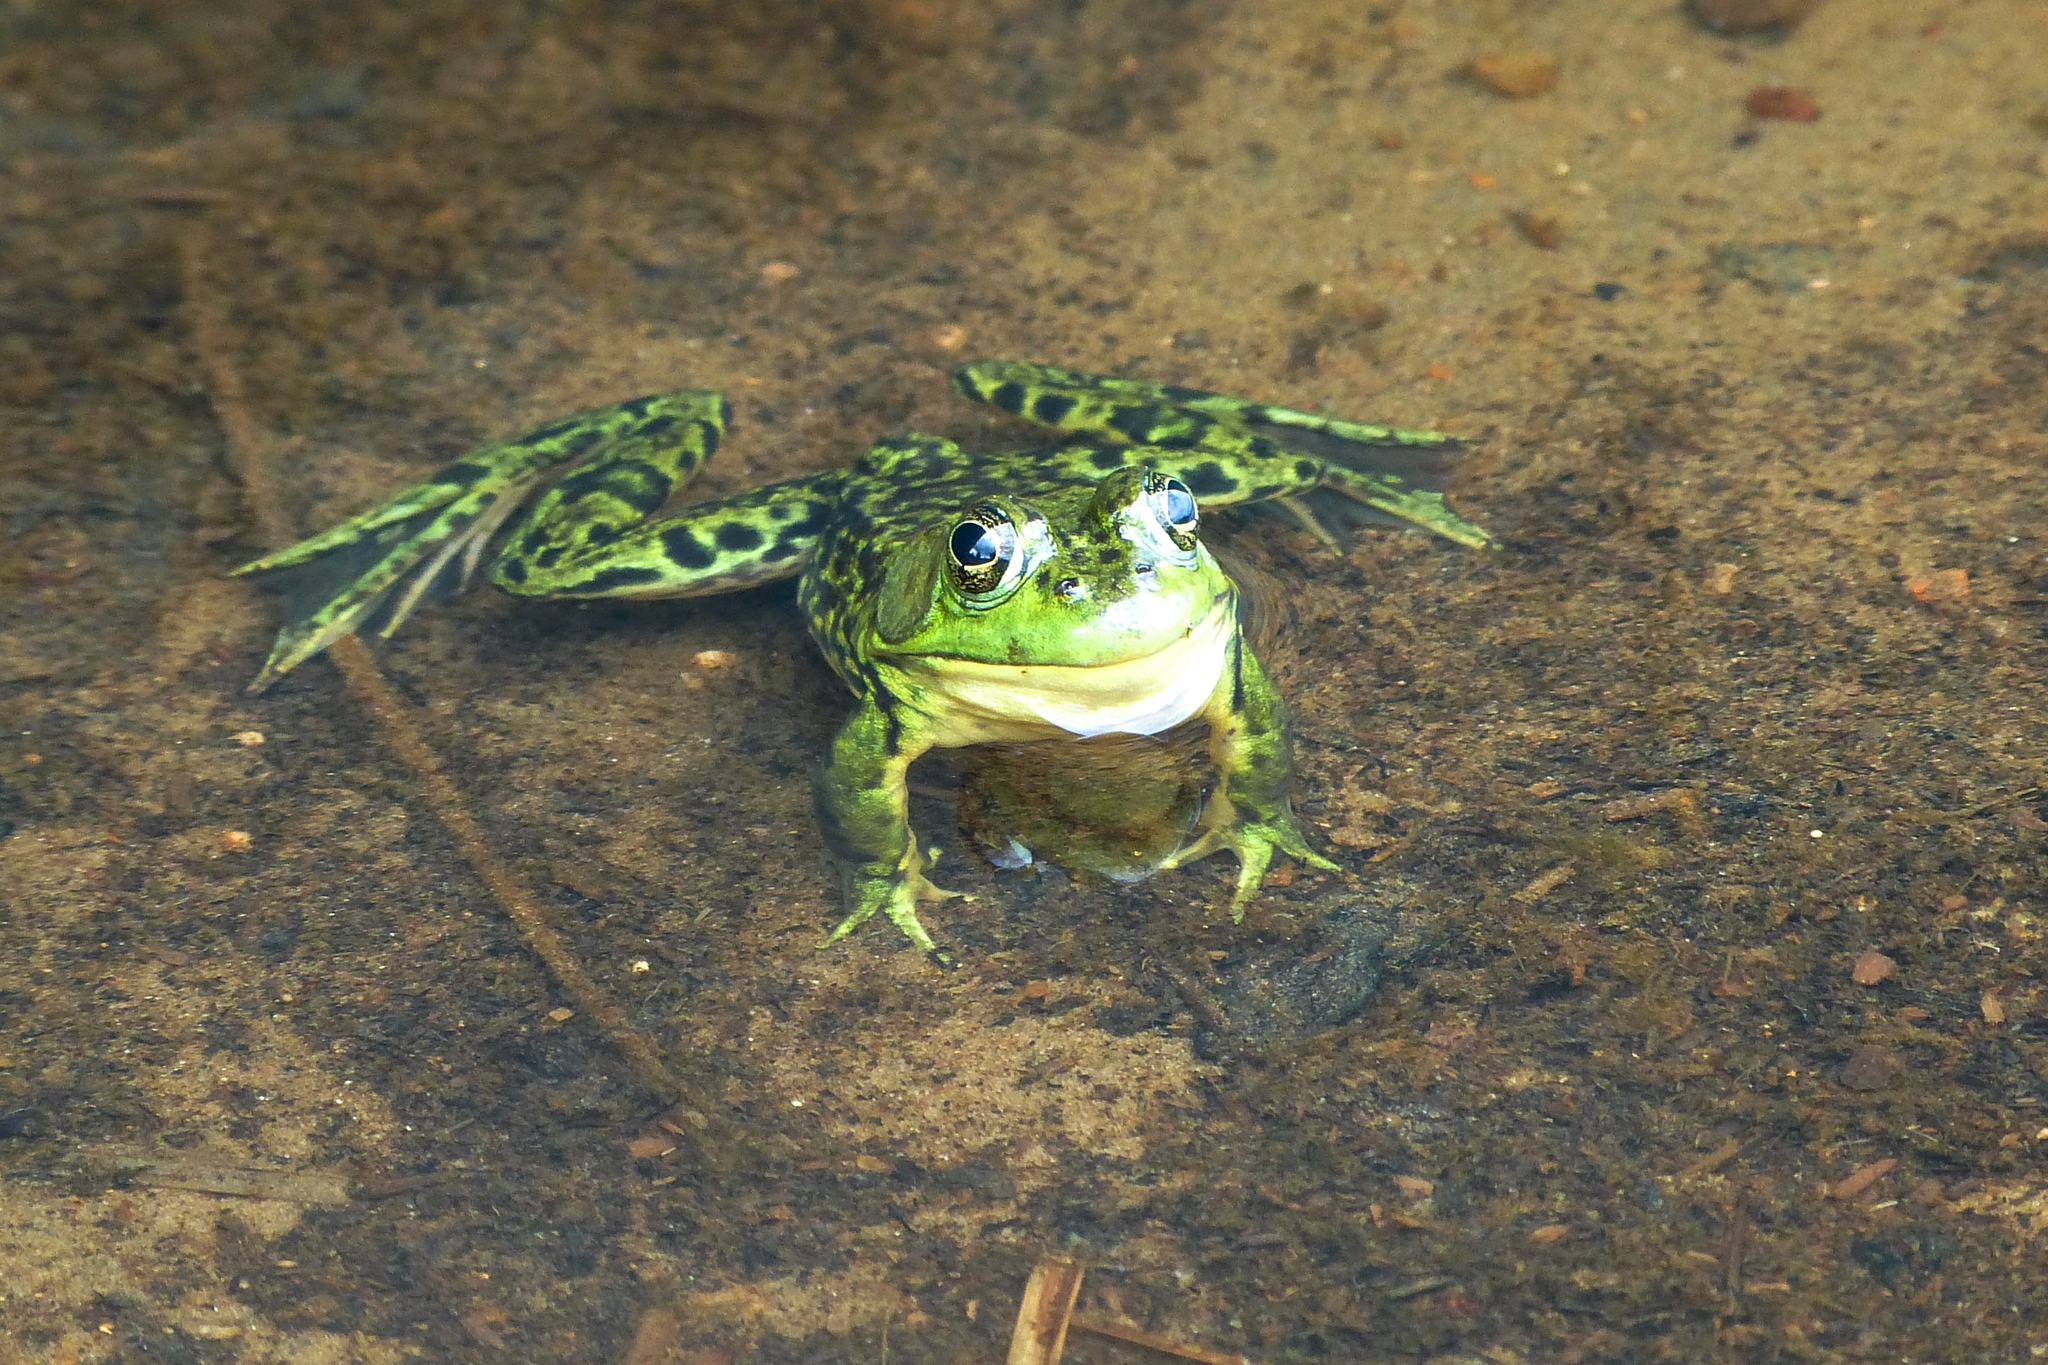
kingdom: Animalia
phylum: Chordata
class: Amphibia
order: Anura
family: Ranidae
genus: Lithobates
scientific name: Lithobates septentrionalis
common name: Mink frog
